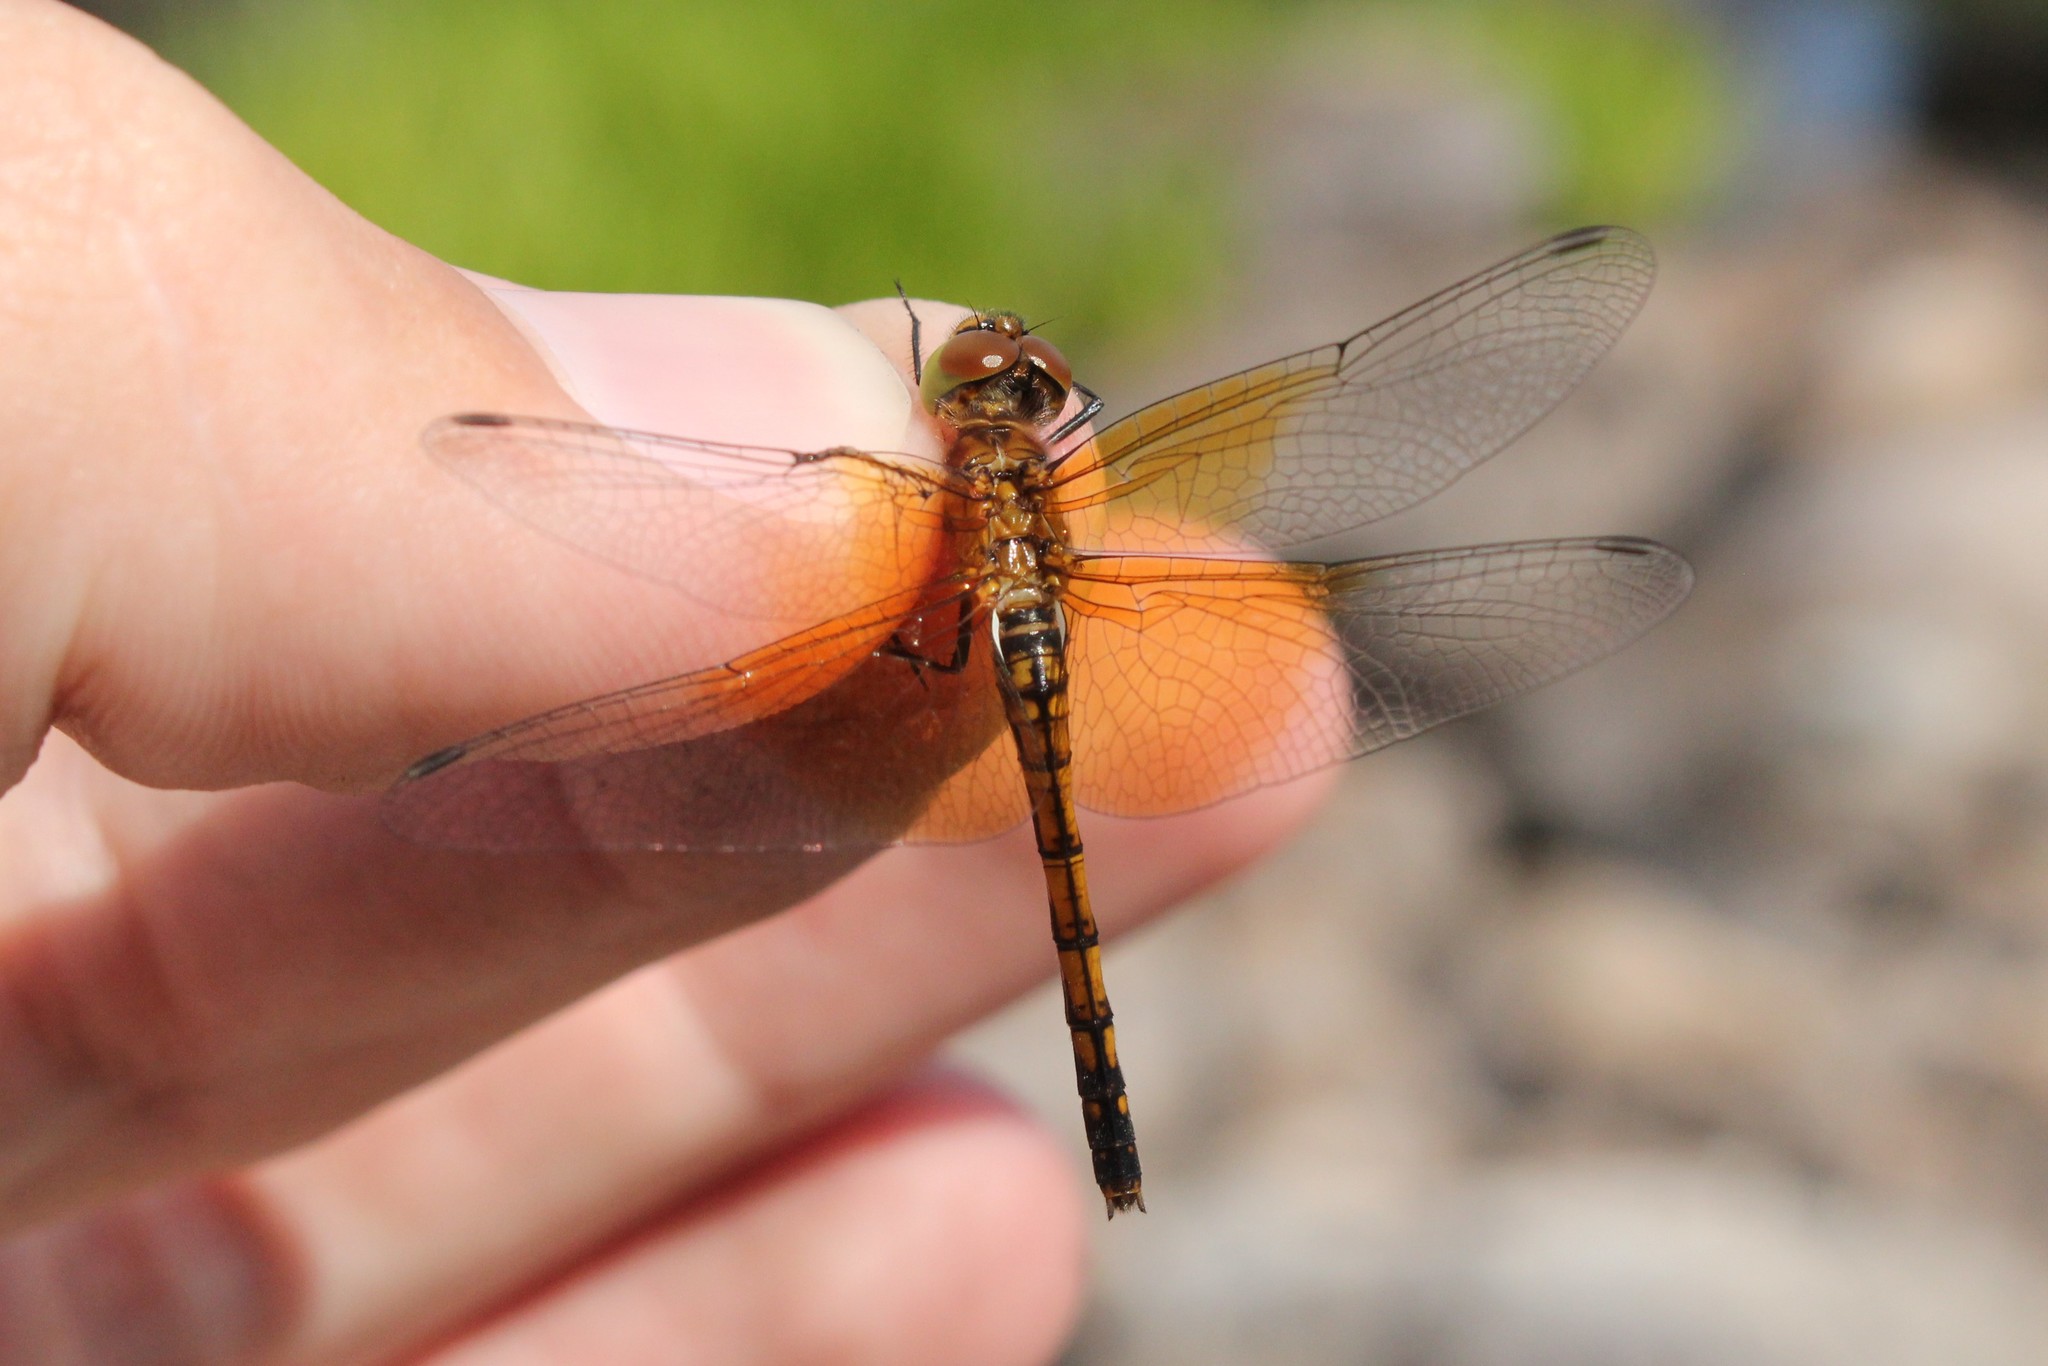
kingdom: Animalia
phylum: Arthropoda
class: Insecta
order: Odonata
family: Libellulidae
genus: Sympetrum
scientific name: Sympetrum semicinctum
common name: Band-winged meadowhawk
